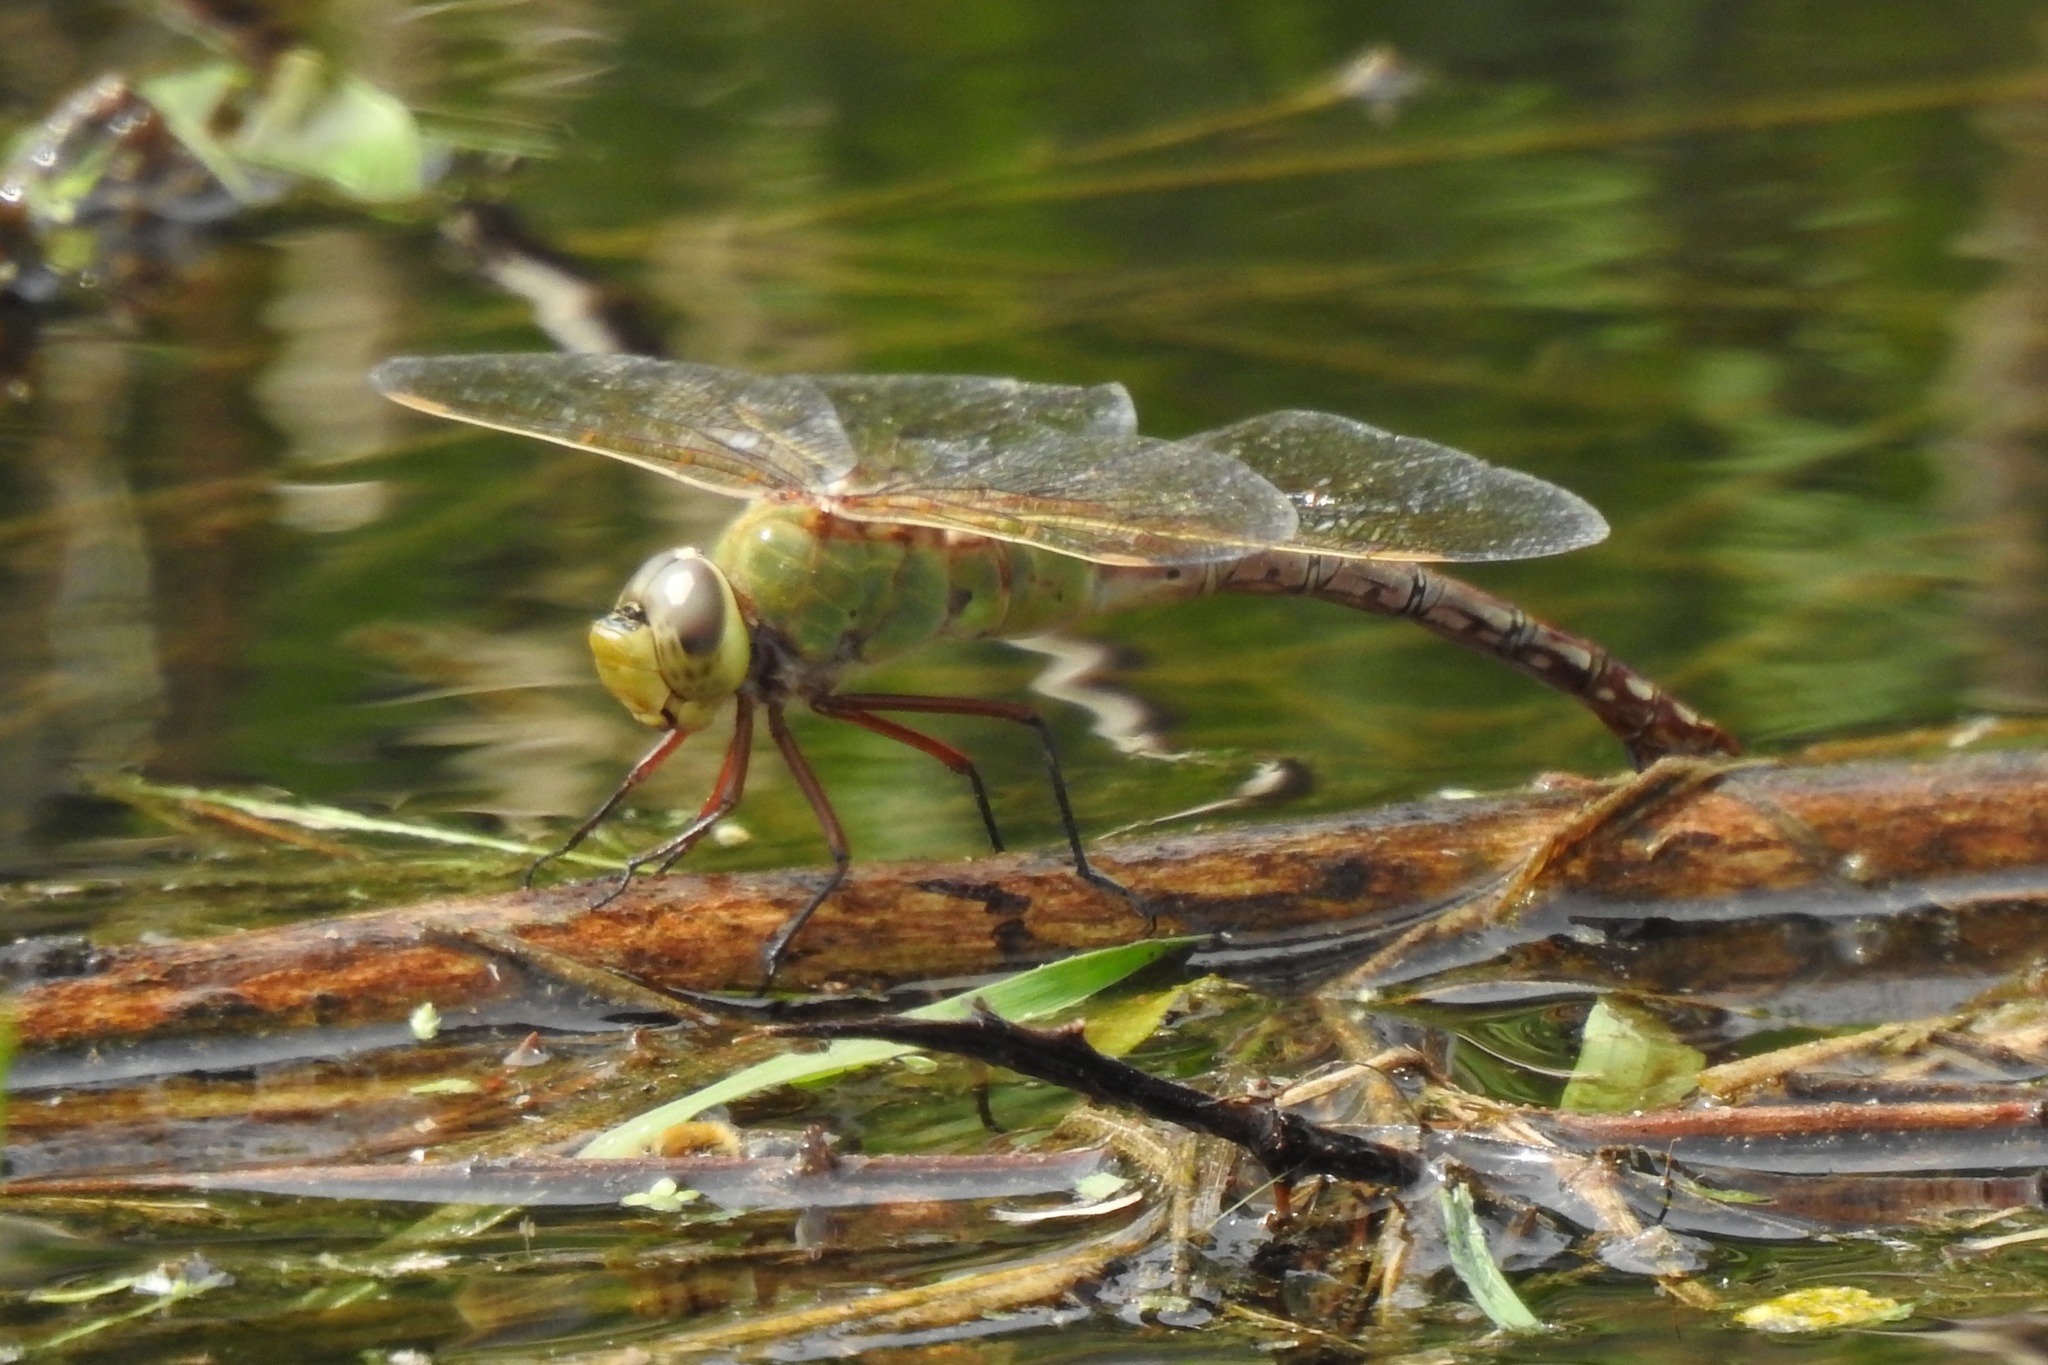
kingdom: Animalia
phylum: Arthropoda
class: Insecta
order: Odonata
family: Aeshnidae
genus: Anax
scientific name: Anax junius
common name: Common green darner
